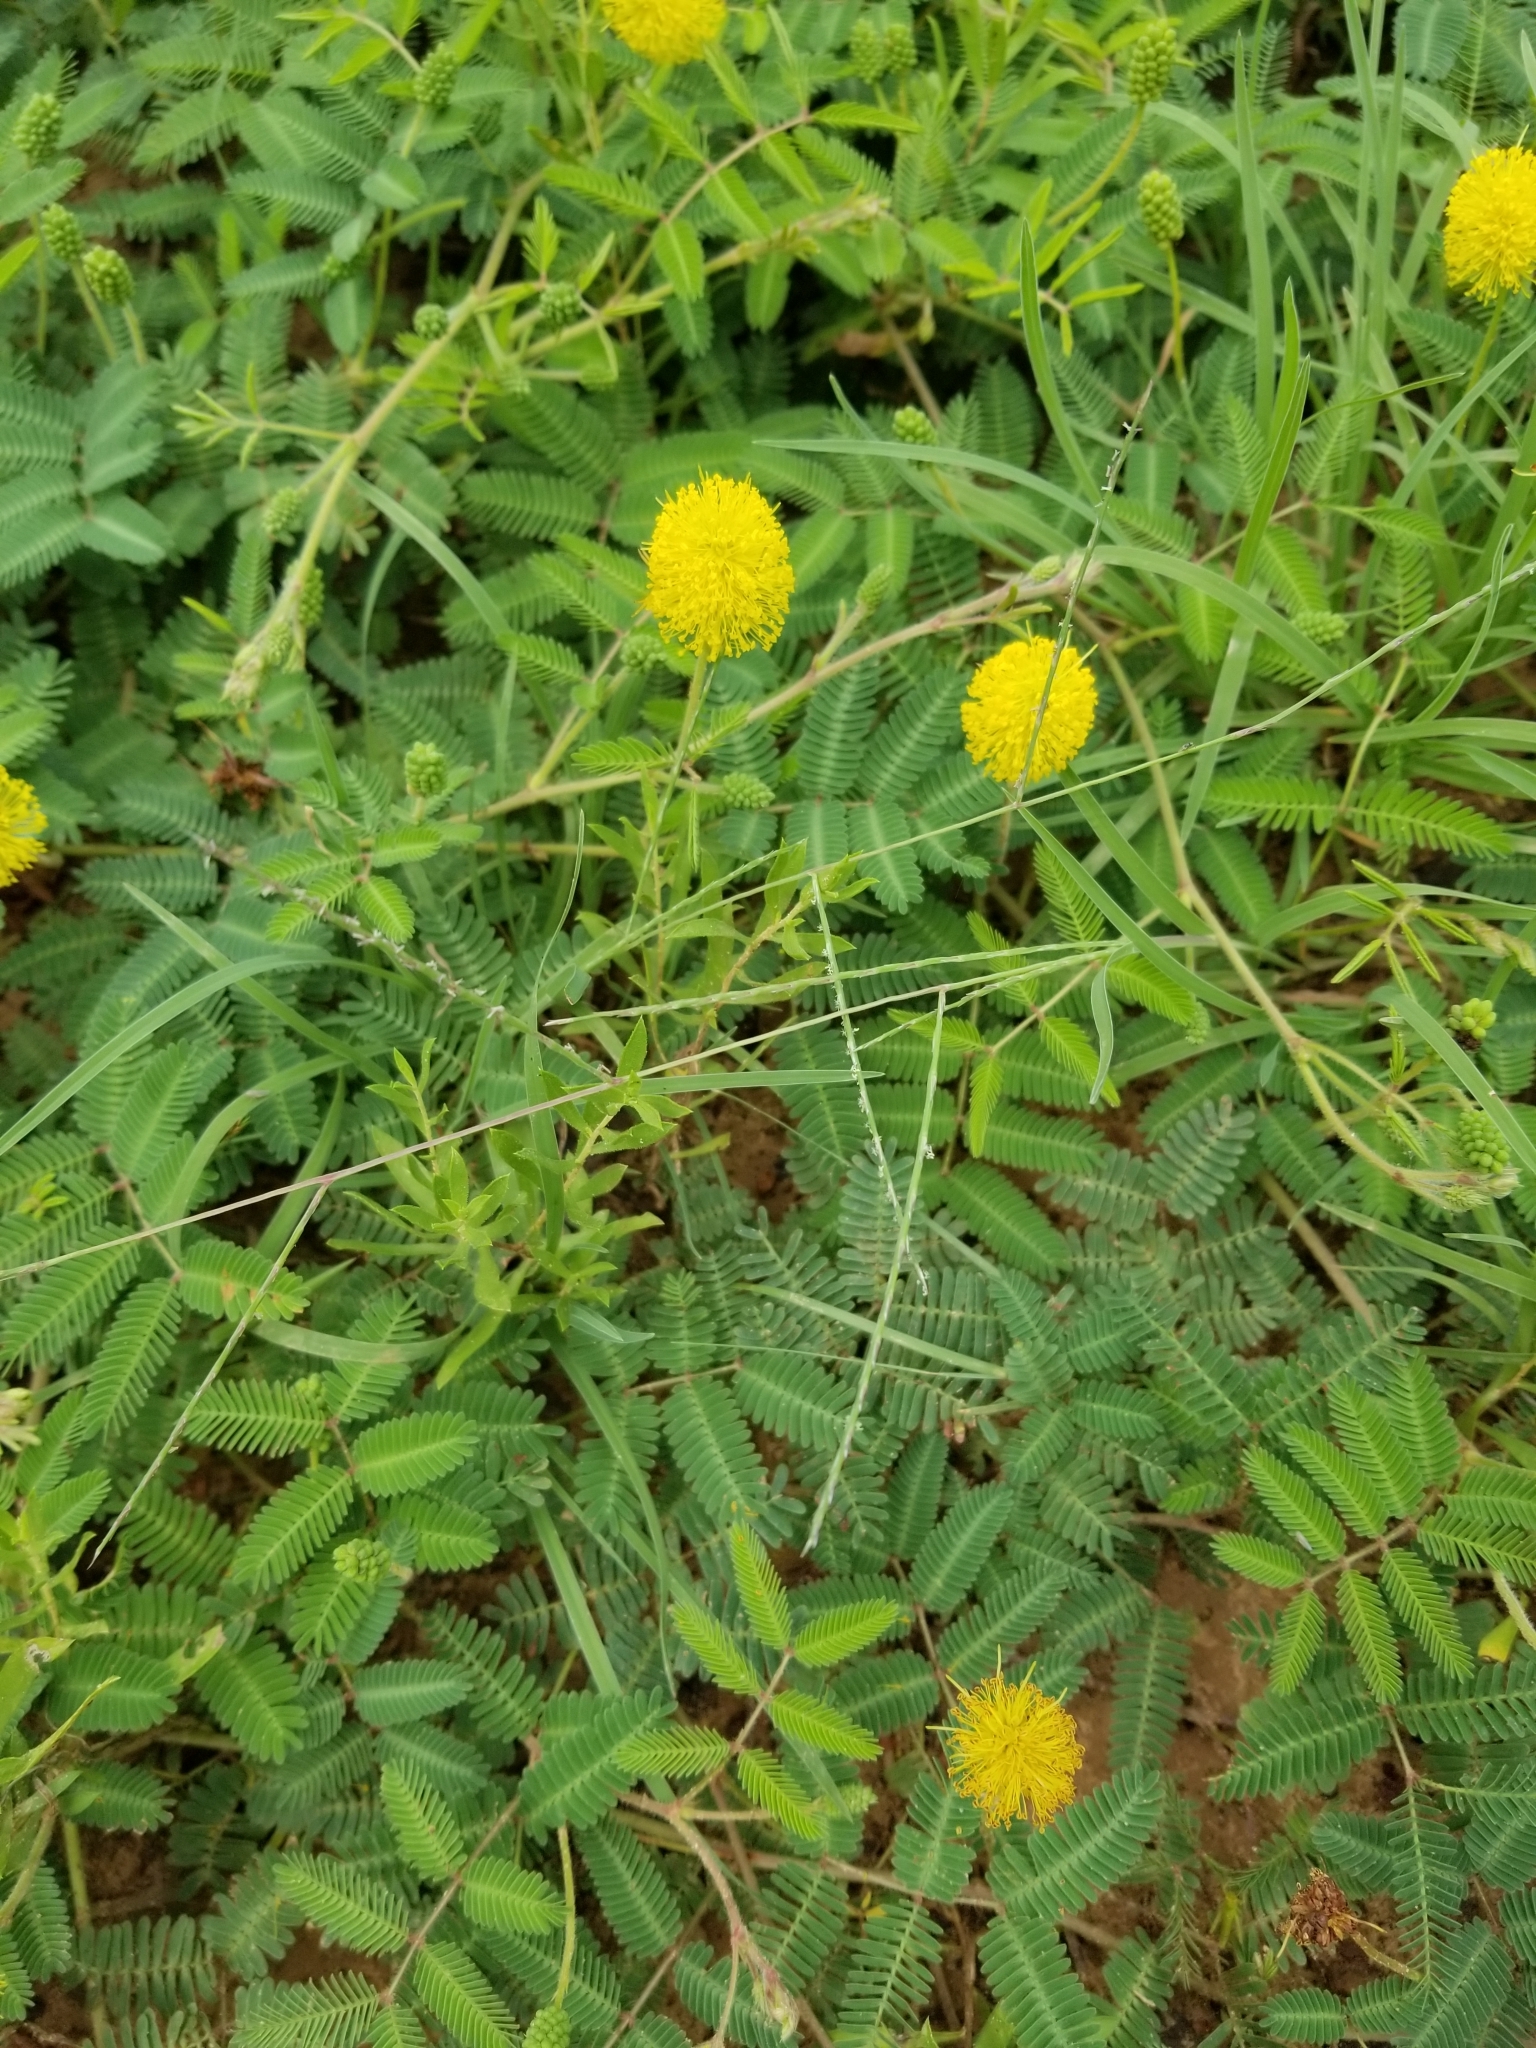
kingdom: Plantae
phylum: Tracheophyta
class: Magnoliopsida
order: Fabales
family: Fabaceae
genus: Neptunia
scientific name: Neptunia lutea
